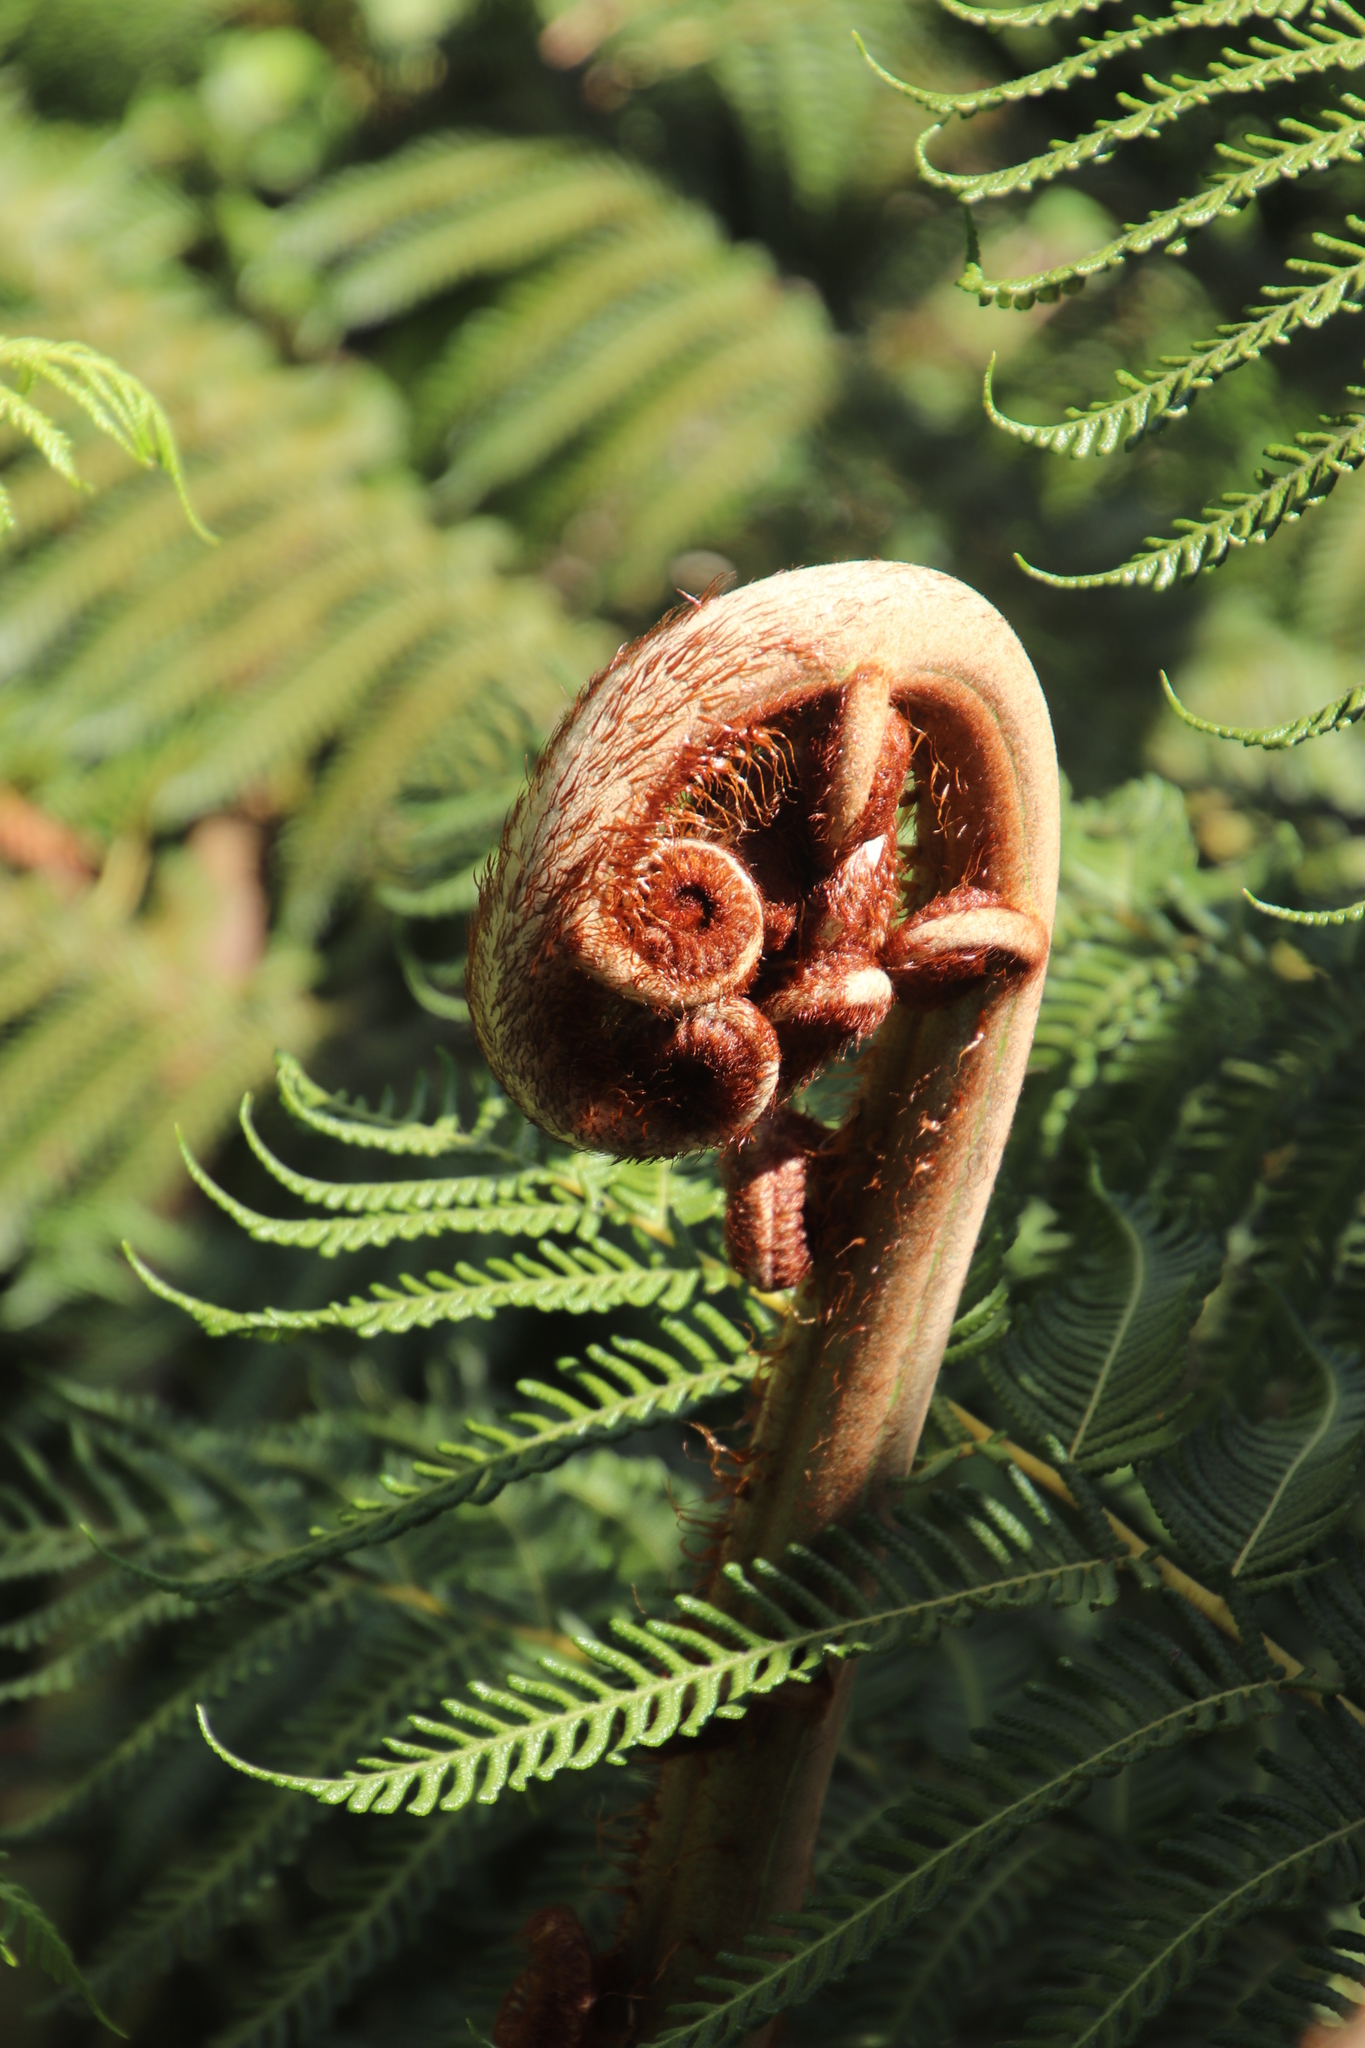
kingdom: Plantae
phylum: Tracheophyta
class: Polypodiopsida
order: Cyatheales
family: Cyatheaceae
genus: Sphaeropteris
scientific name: Sphaeropteris cooperi
